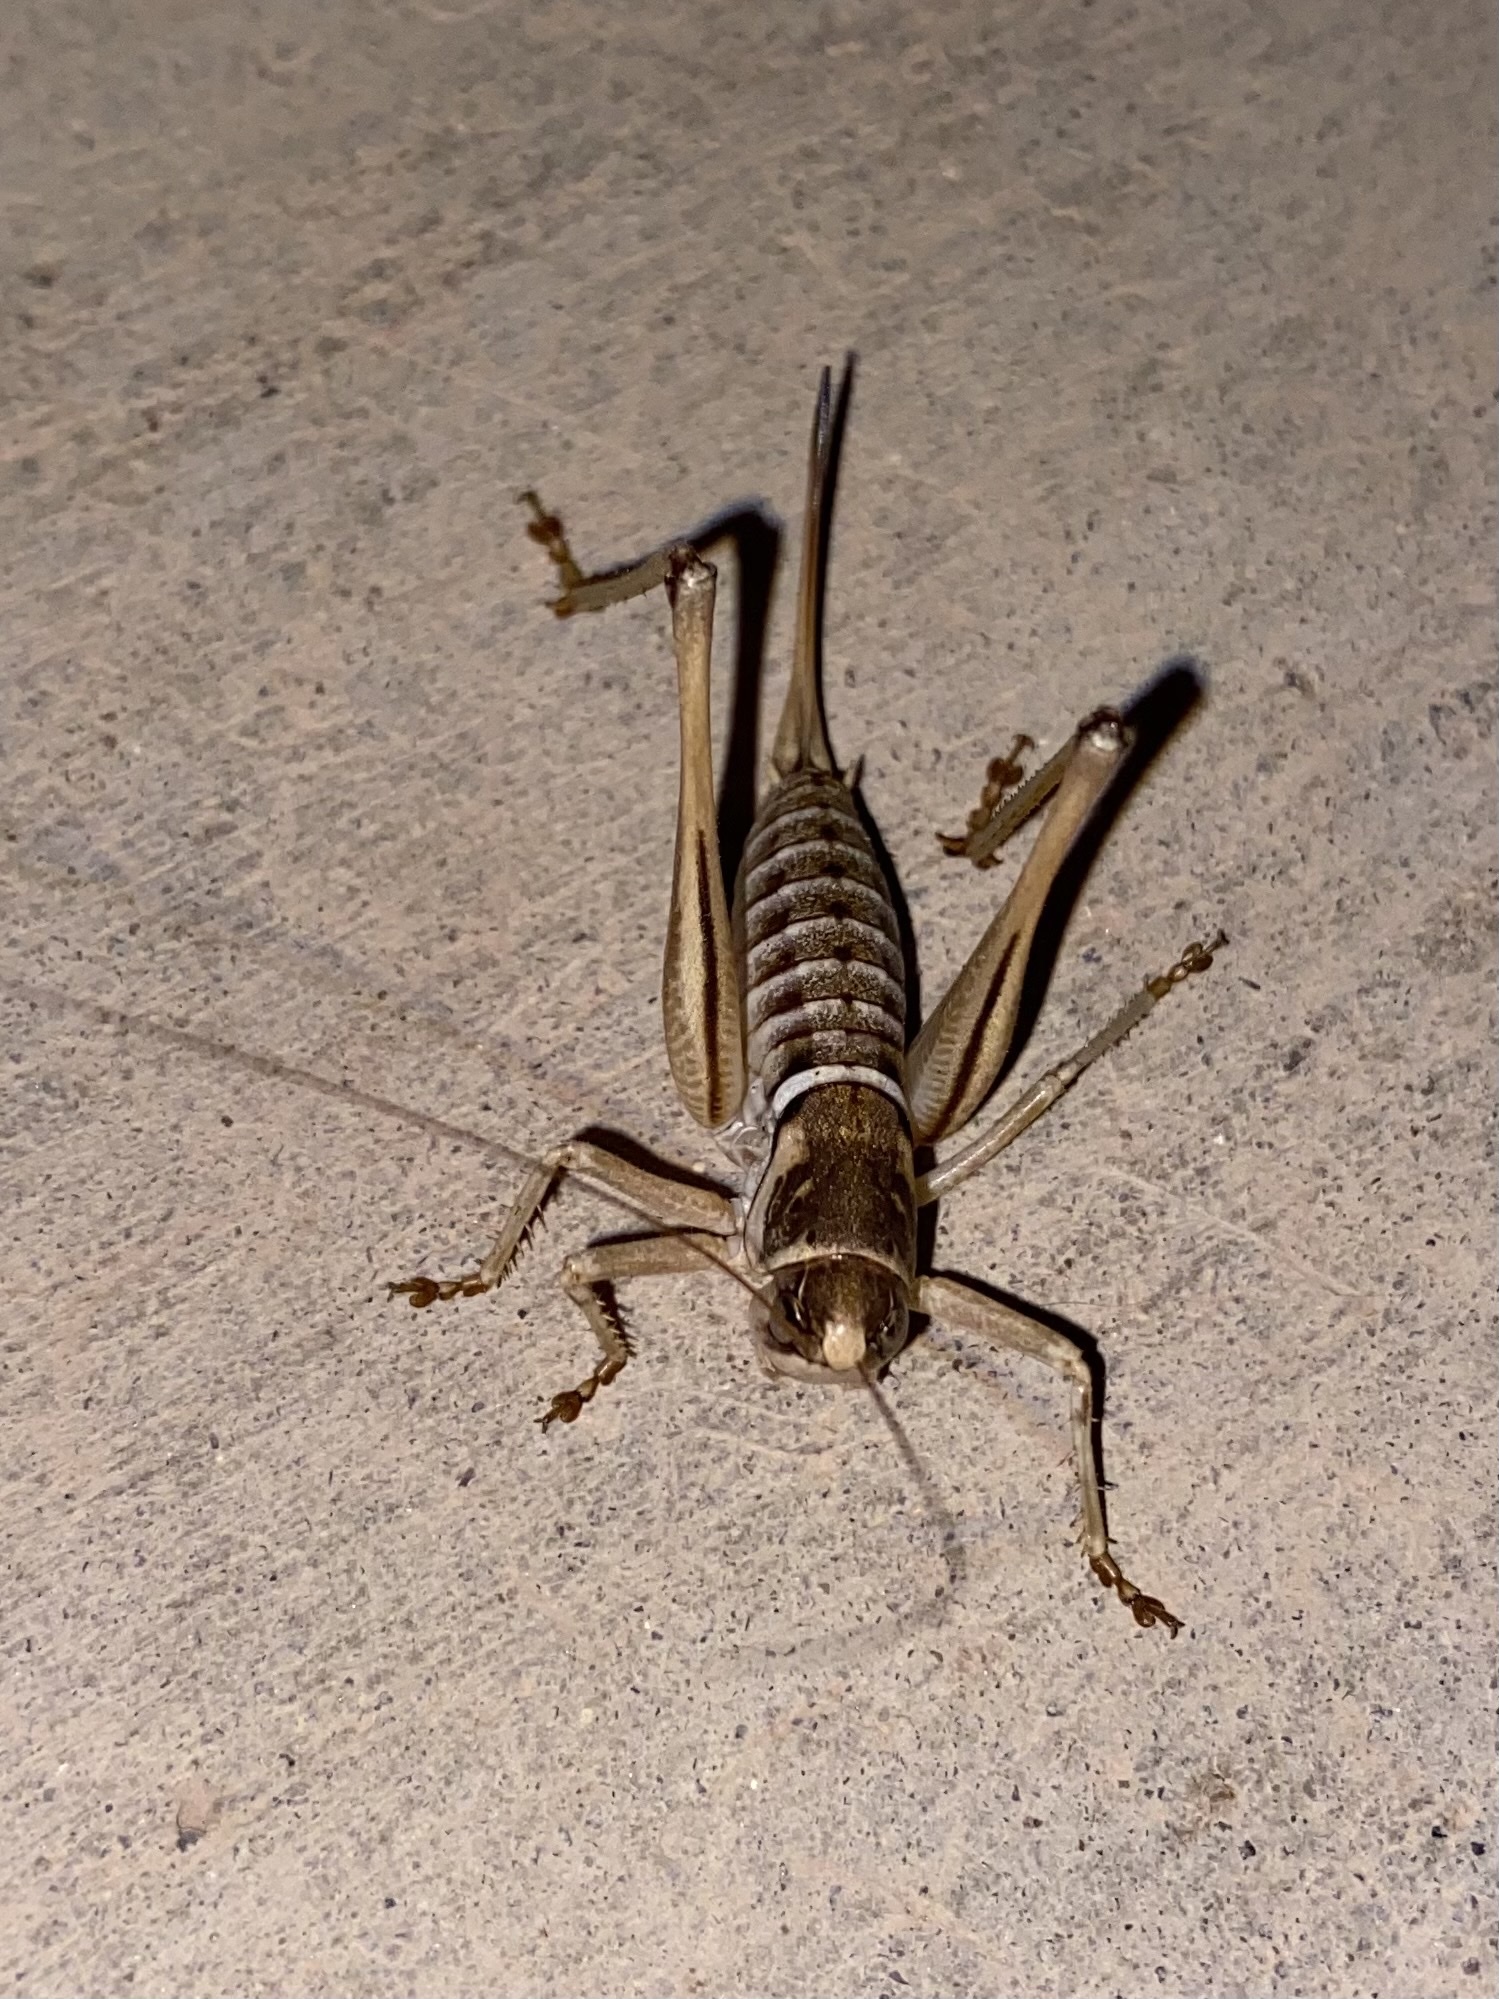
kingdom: Animalia
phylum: Arthropoda
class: Insecta
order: Orthoptera
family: Tettigoniidae
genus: Pediodectes
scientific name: Pediodectes stevensonii
